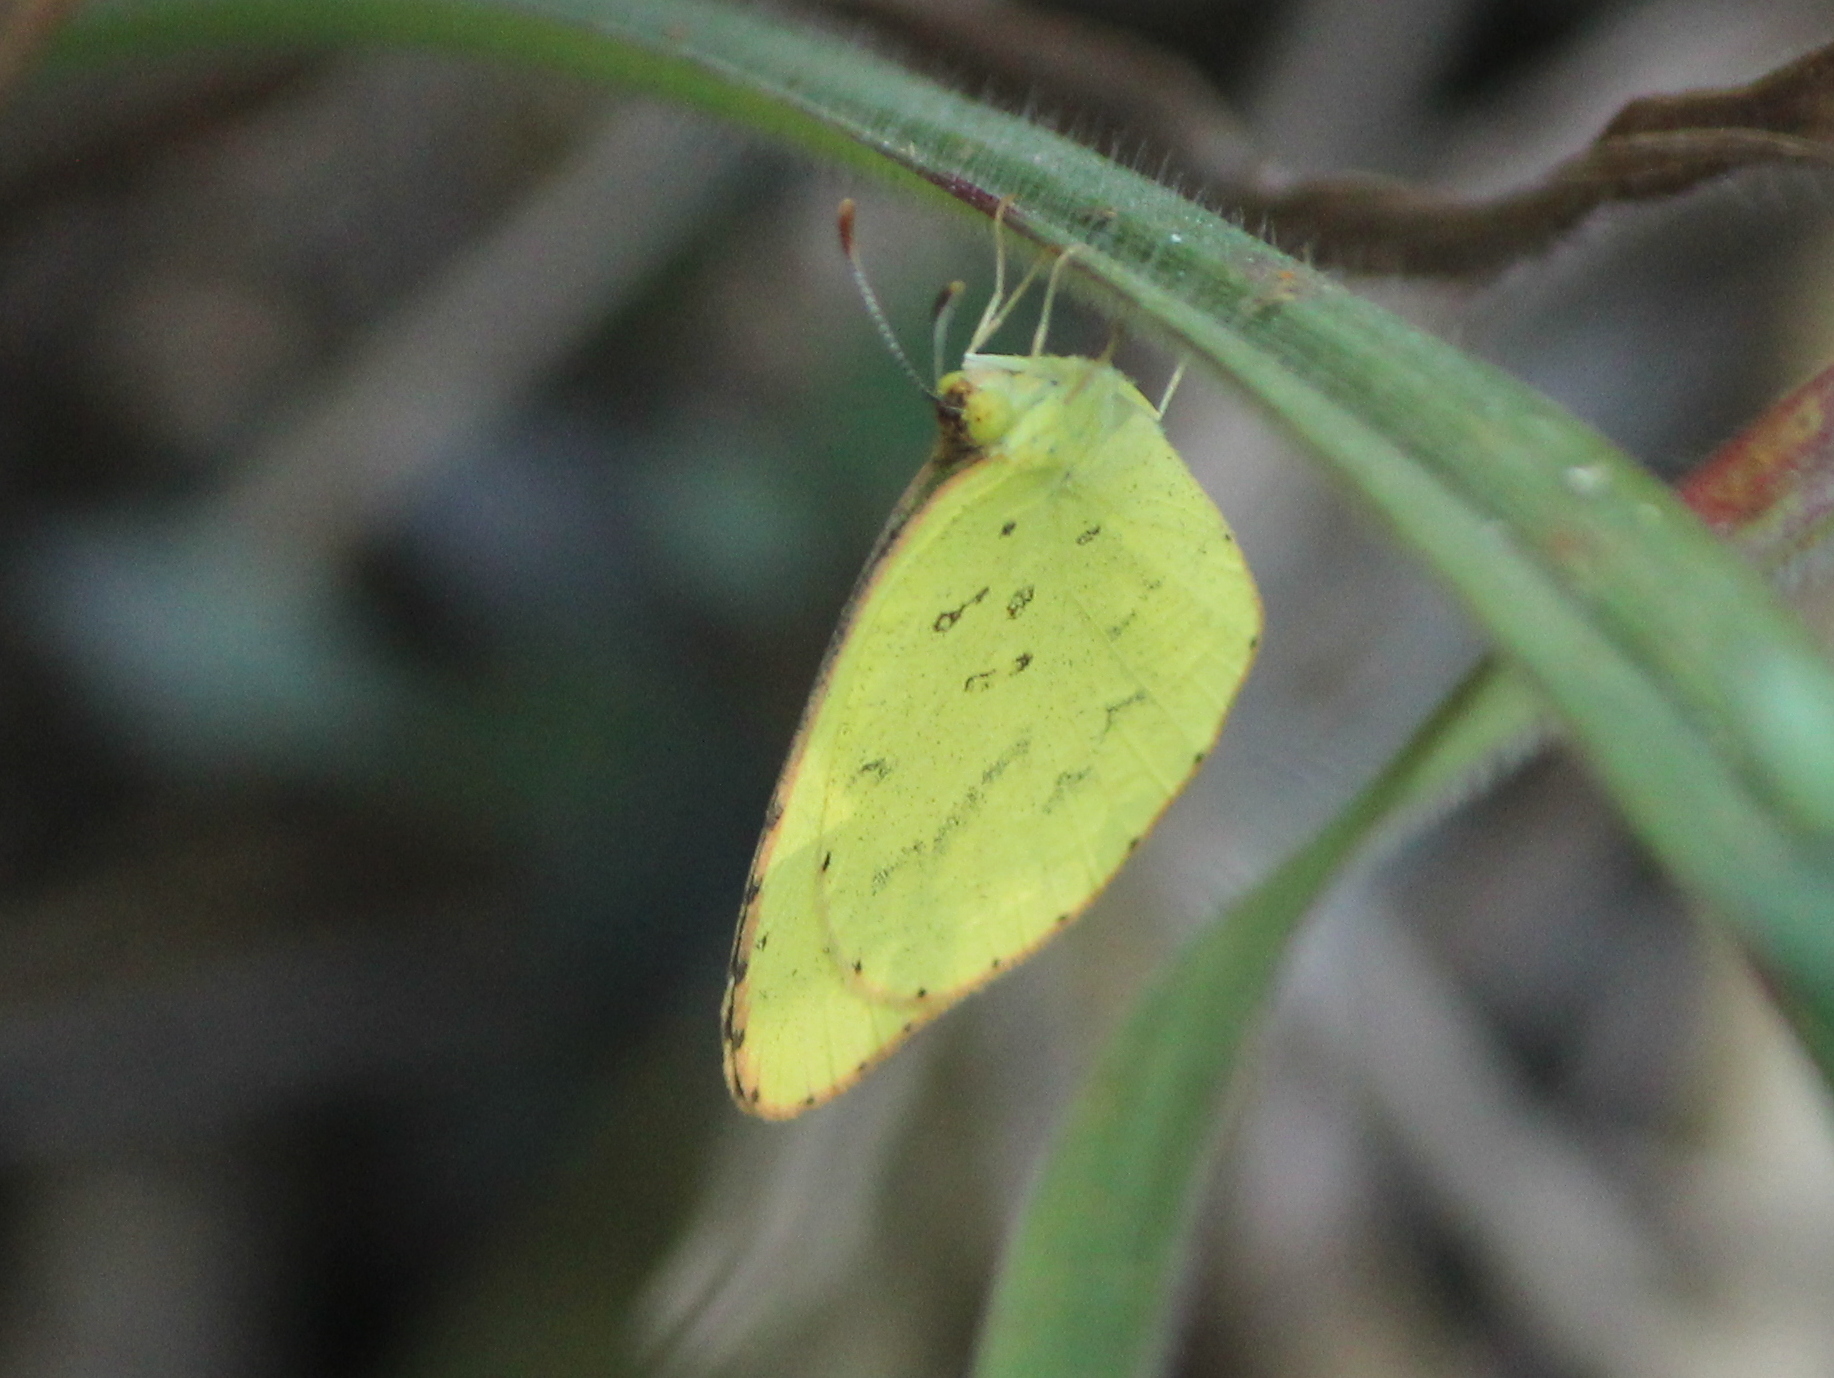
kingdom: Animalia
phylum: Arthropoda
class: Insecta
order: Lepidoptera
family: Pieridae
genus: Eurema
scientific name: Eurema brigitta
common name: Small grass yellow
